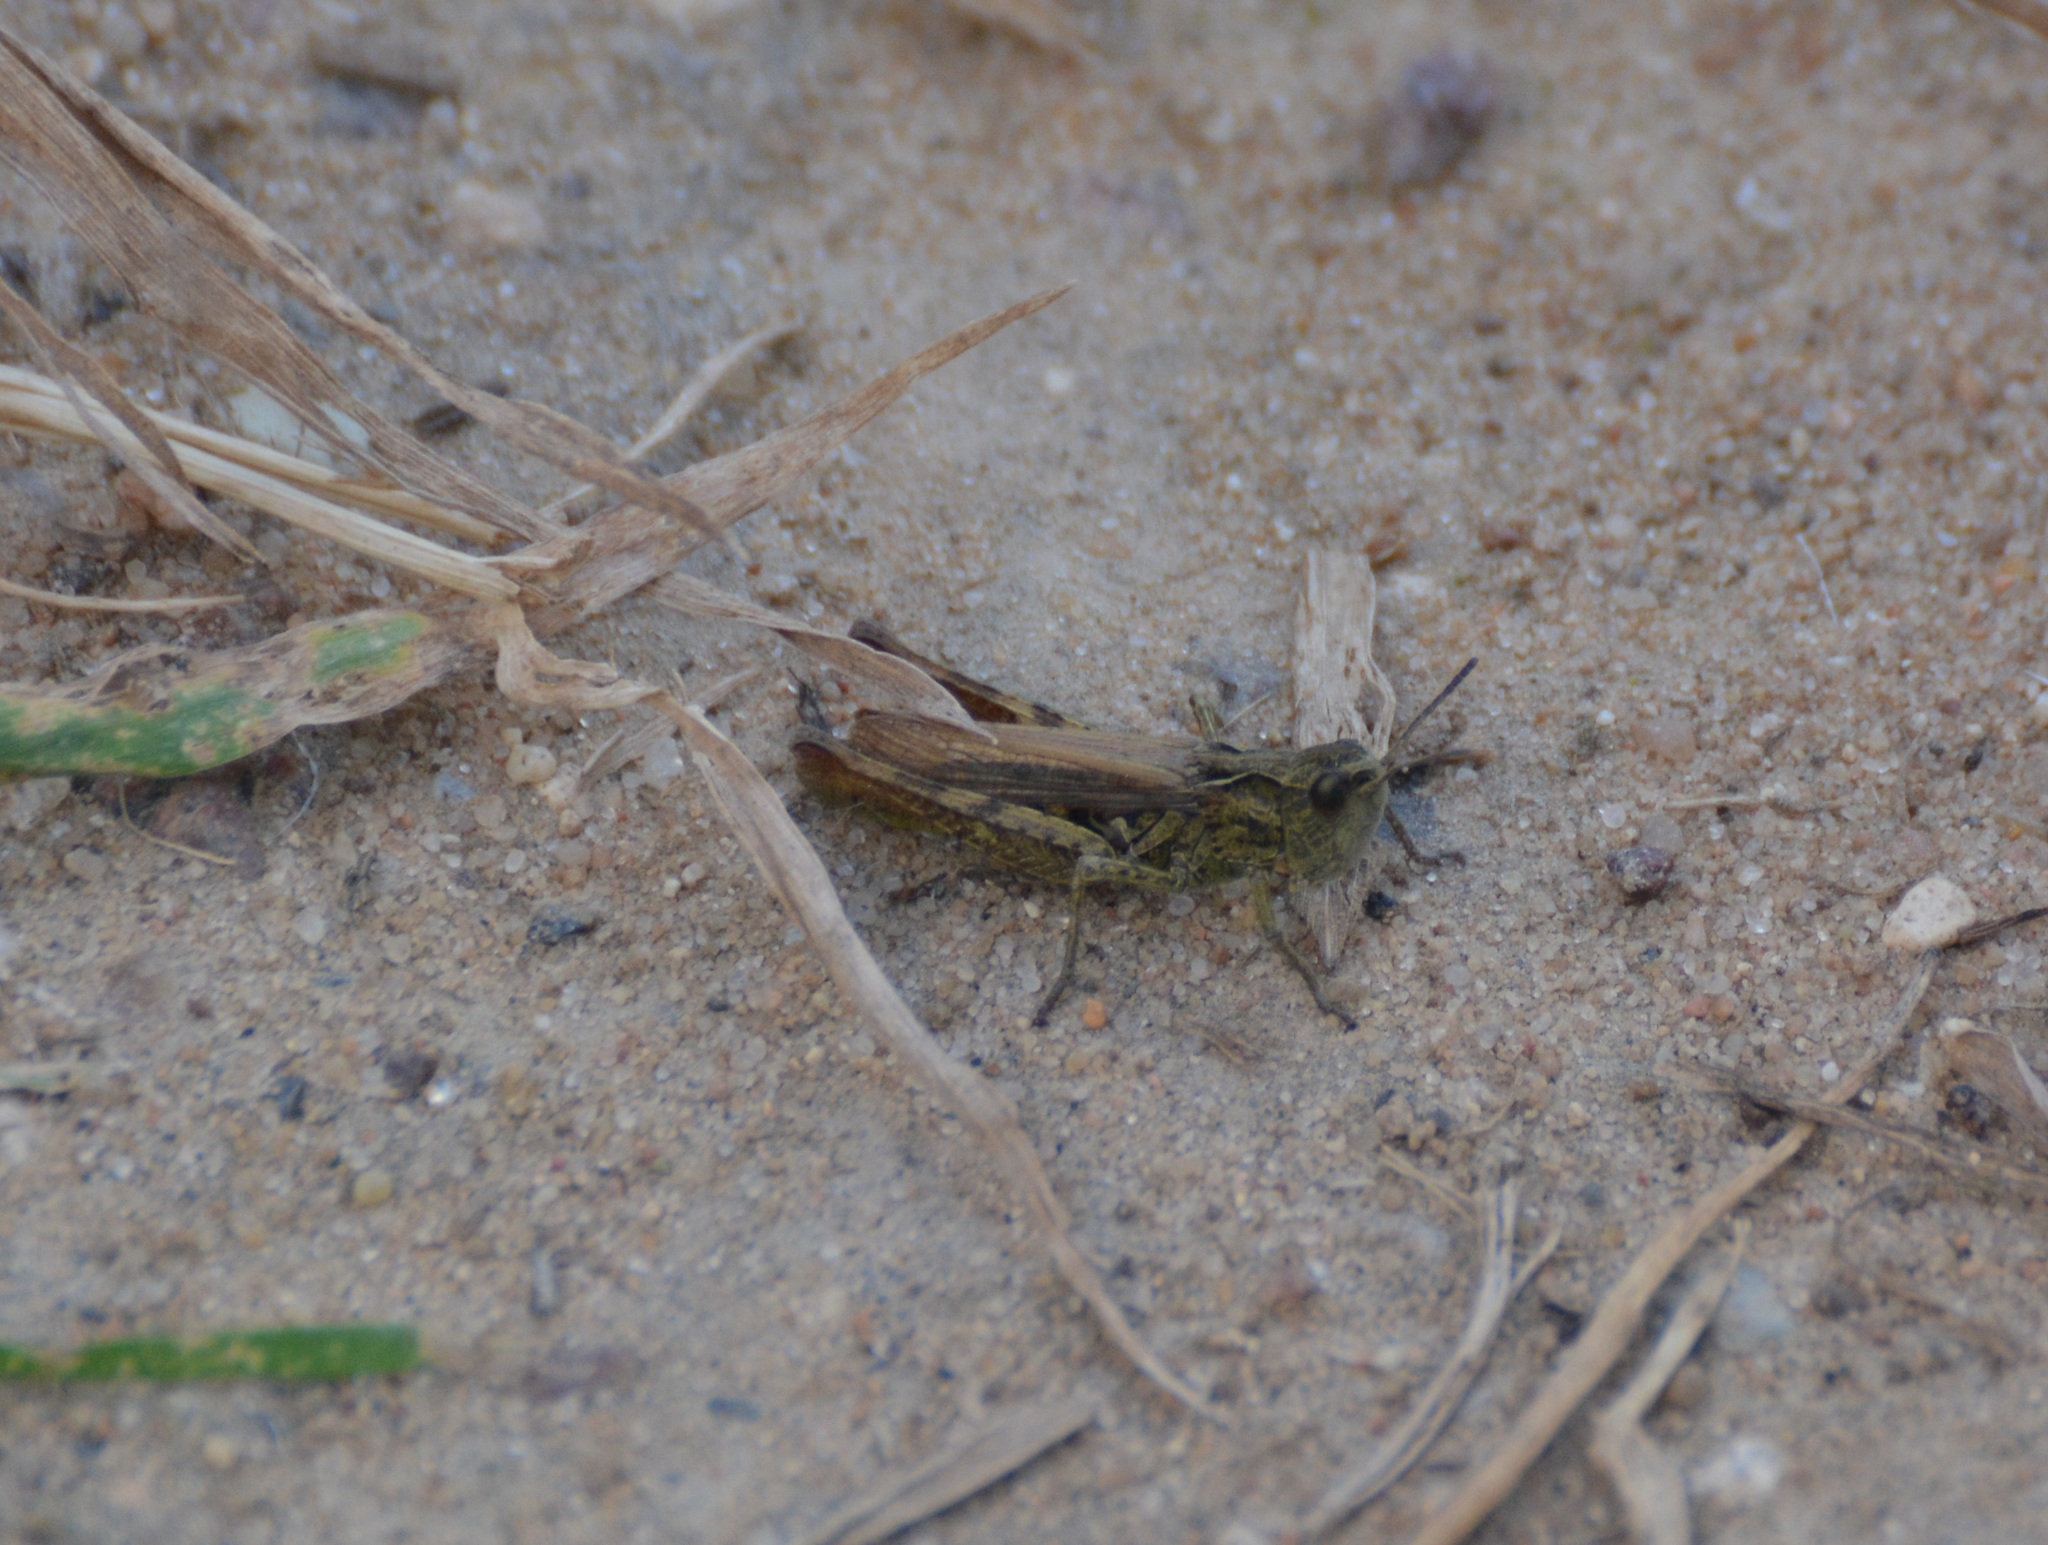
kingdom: Animalia
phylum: Arthropoda
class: Insecta
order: Orthoptera
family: Acrididae
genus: Chorthippus
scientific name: Chorthippus apricarius
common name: Upland field grasshopper
